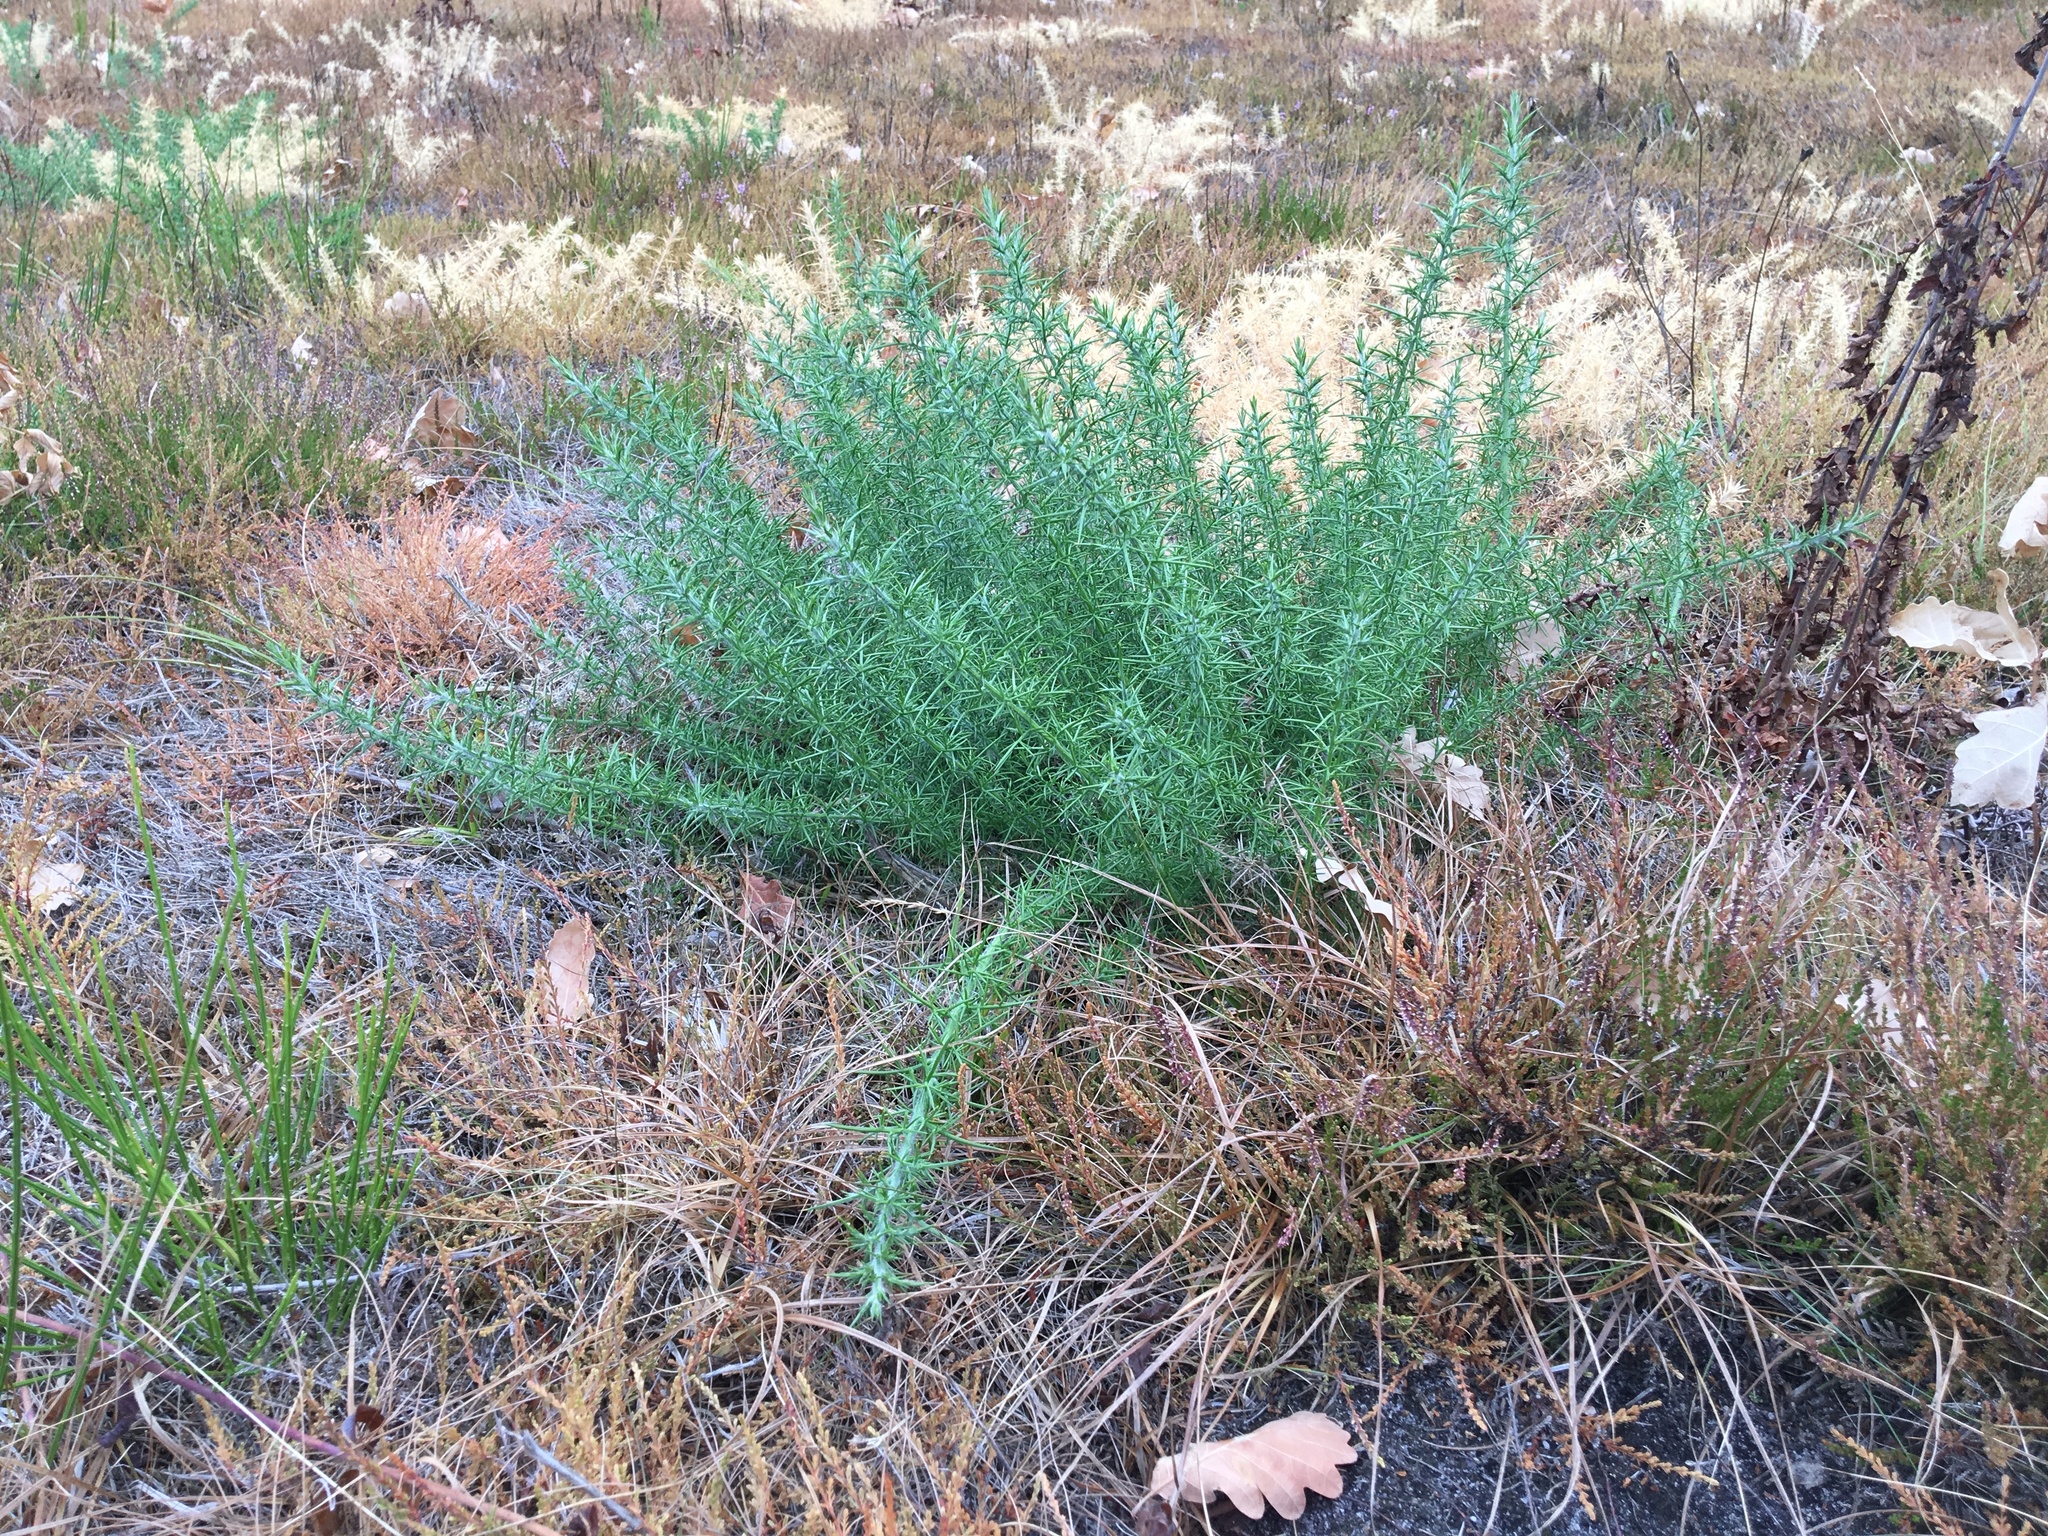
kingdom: Plantae
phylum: Tracheophyta
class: Magnoliopsida
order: Fabales
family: Fabaceae
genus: Ulex
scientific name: Ulex europaeus
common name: Common gorse
